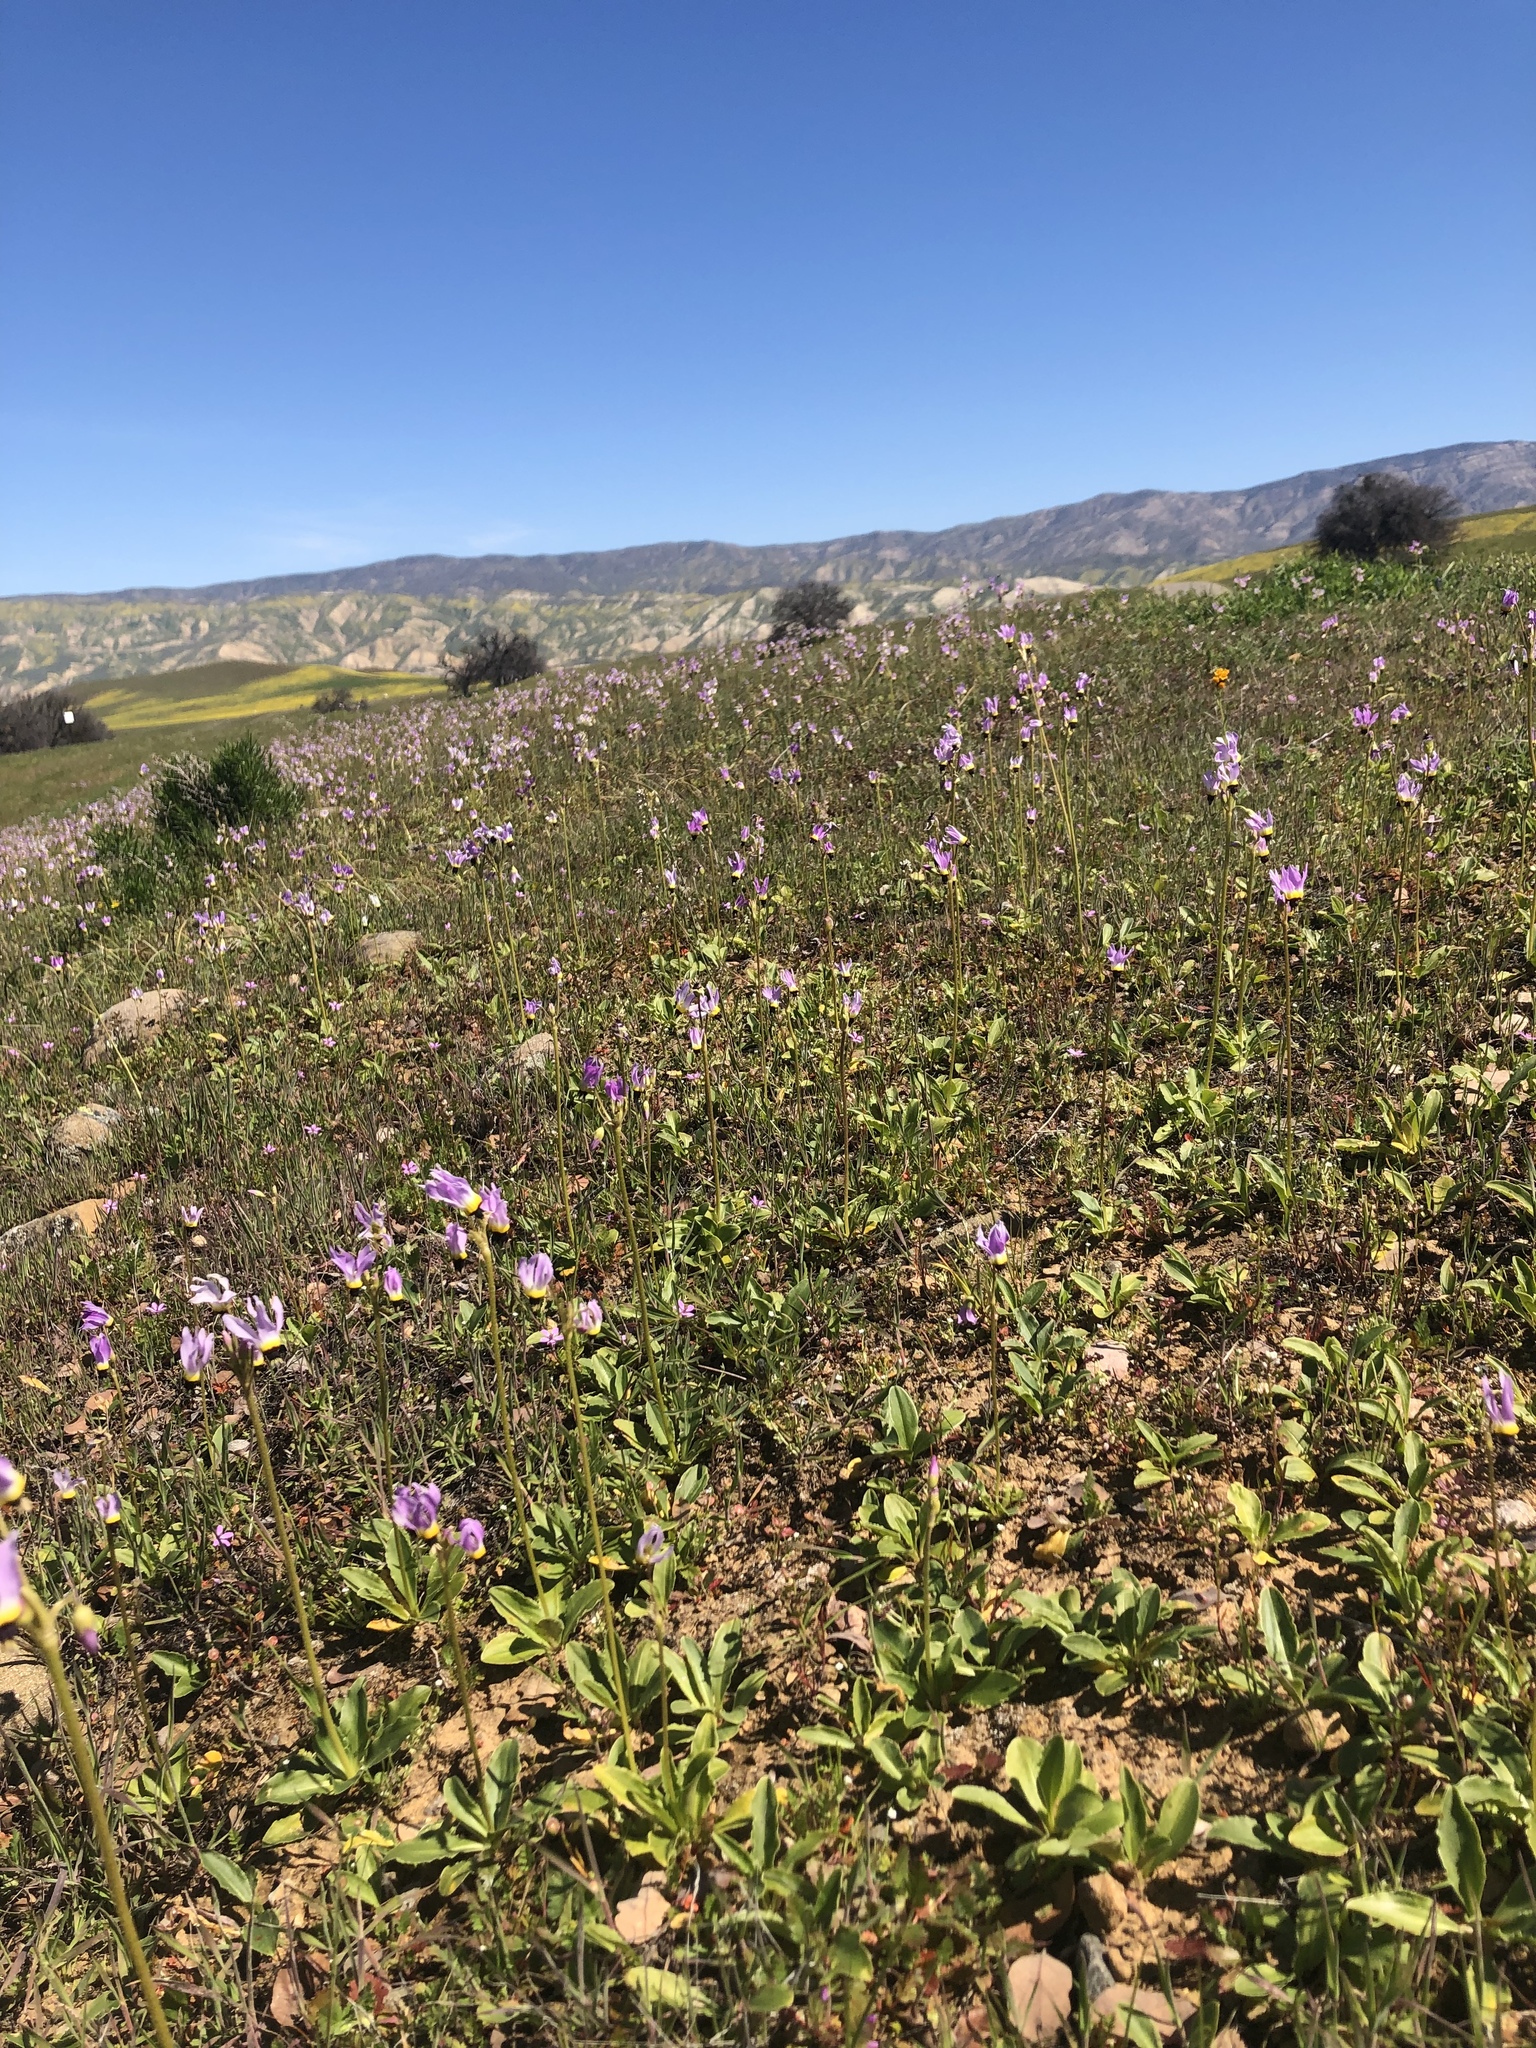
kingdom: Plantae
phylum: Tracheophyta
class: Magnoliopsida
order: Ericales
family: Primulaceae
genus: Dodecatheon
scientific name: Dodecatheon clevelandii
